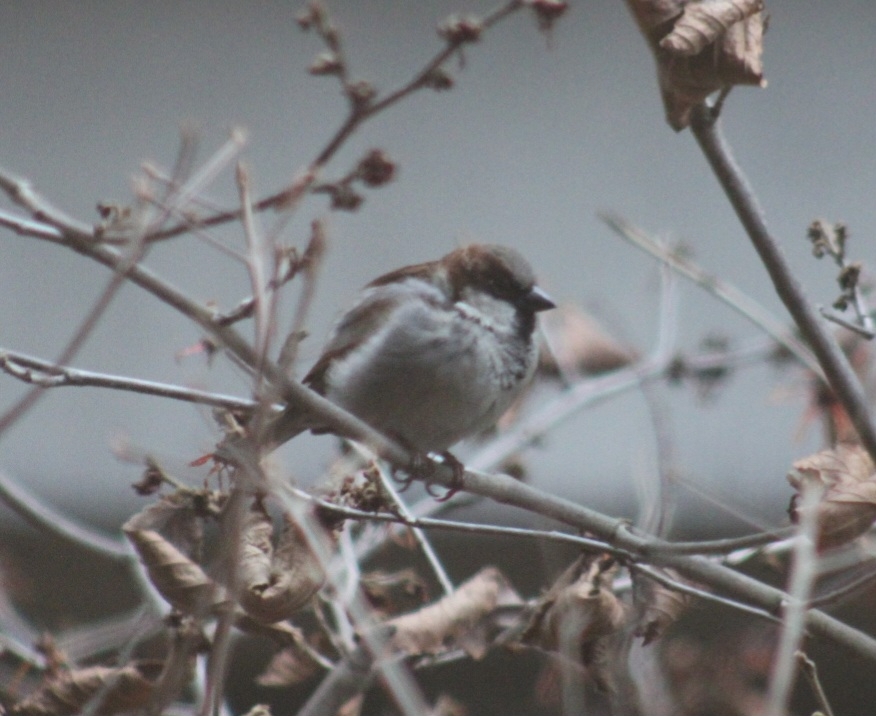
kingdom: Animalia
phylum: Chordata
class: Aves
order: Passeriformes
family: Passeridae
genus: Passer
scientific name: Passer domesticus
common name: House sparrow
